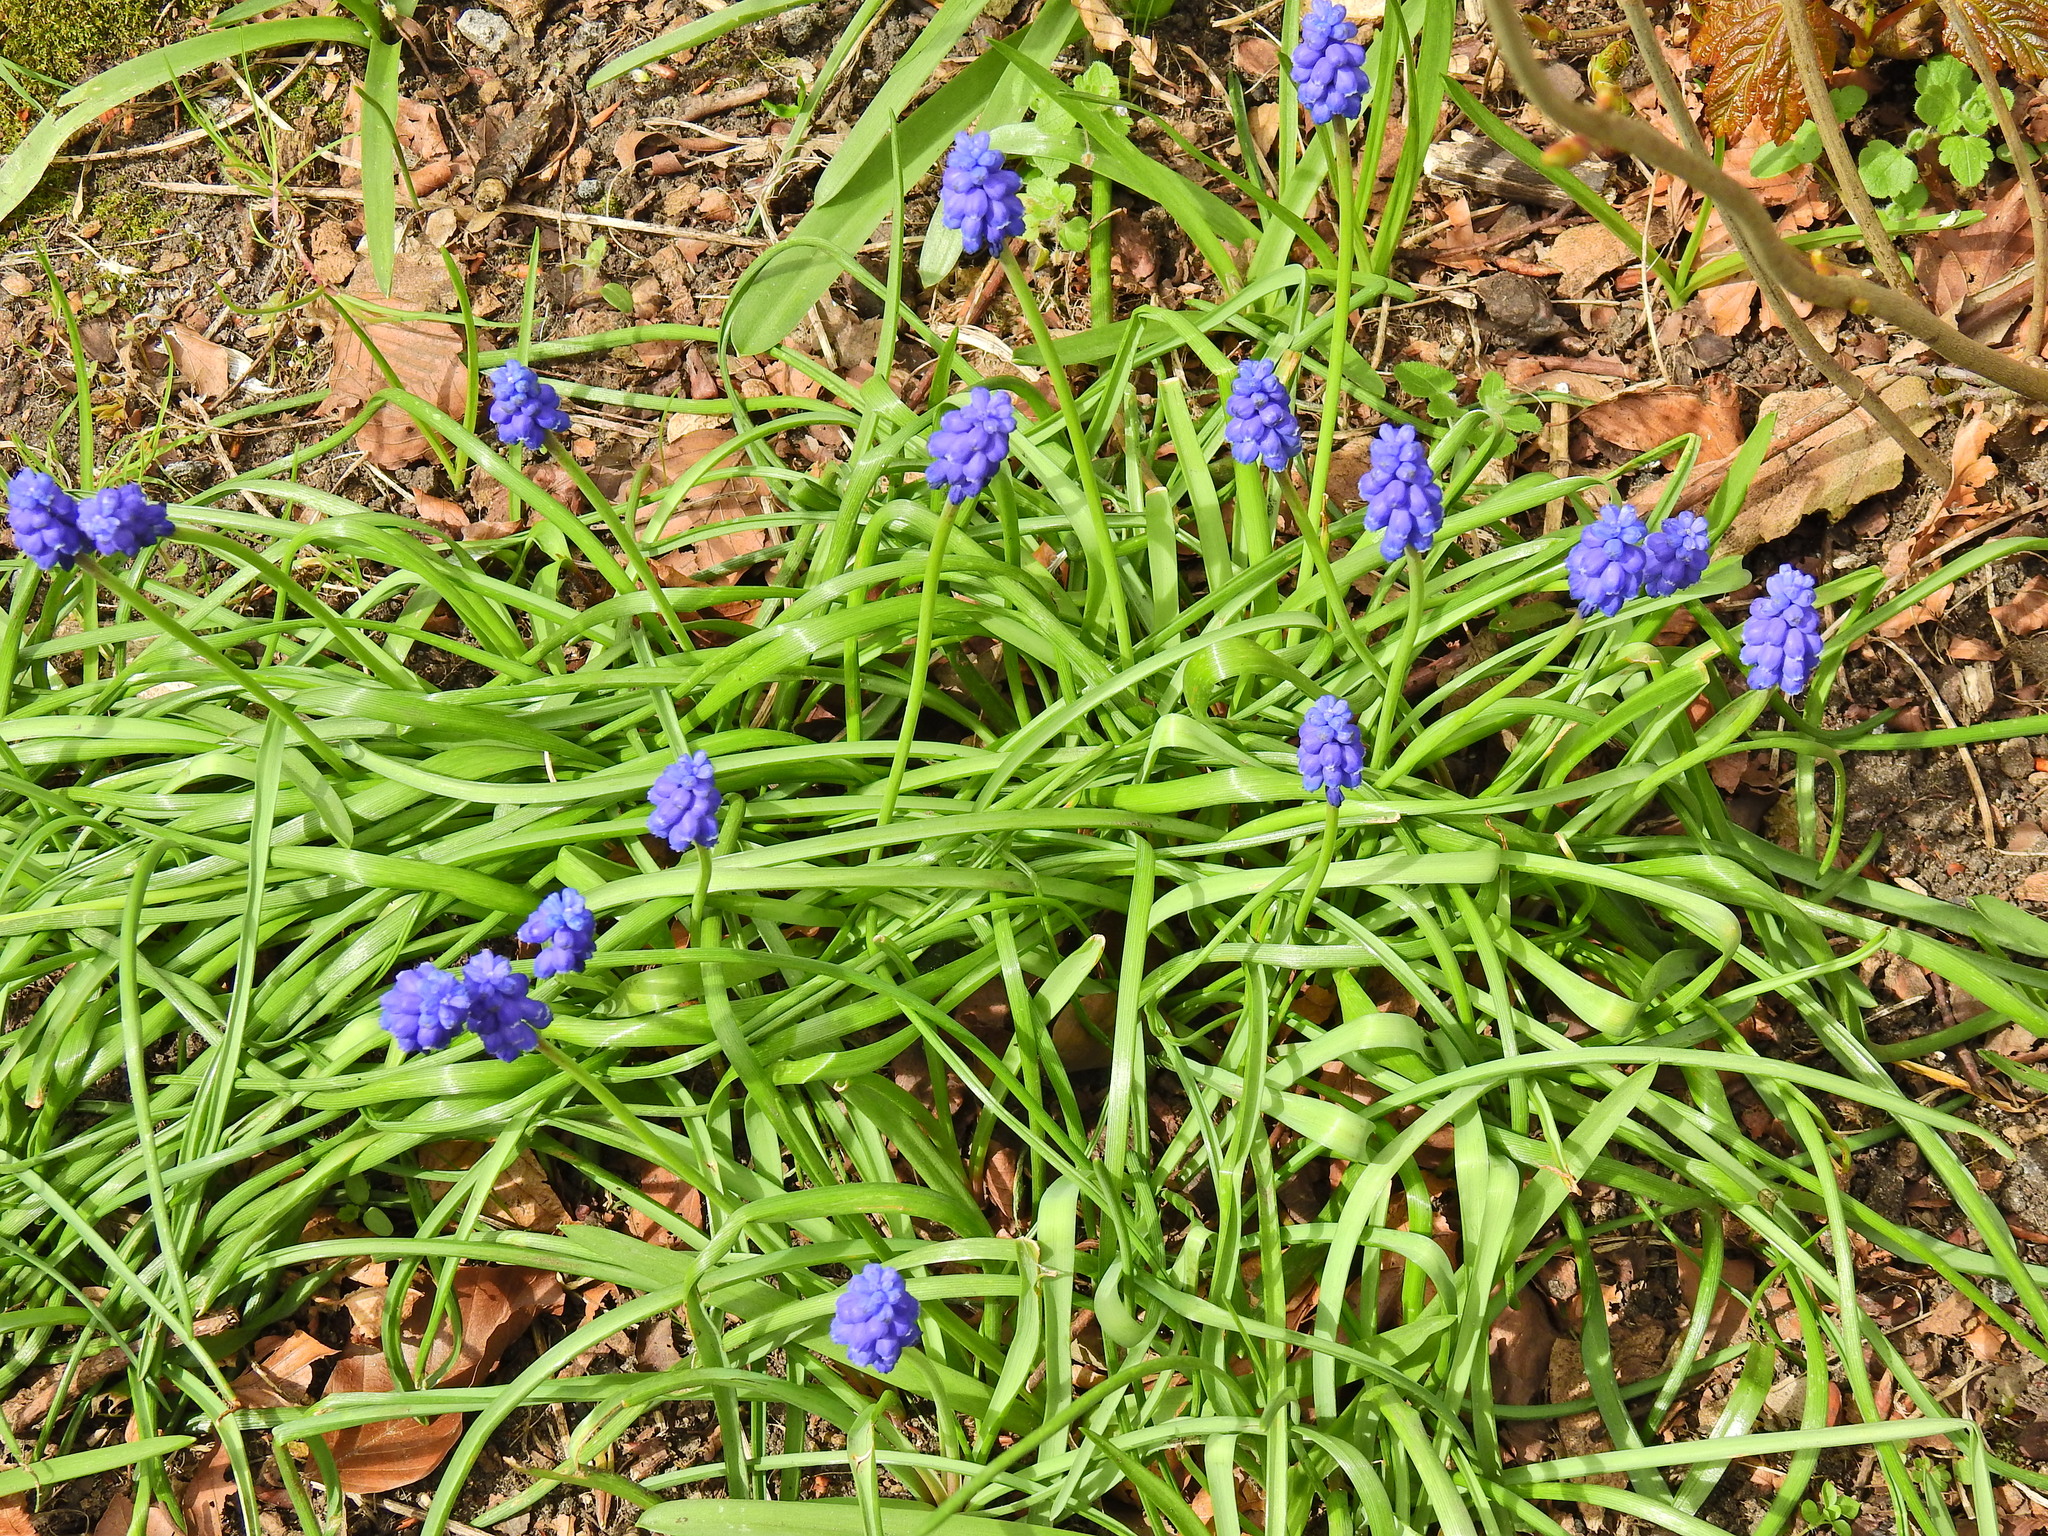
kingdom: Plantae
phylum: Tracheophyta
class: Liliopsida
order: Asparagales
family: Asparagaceae
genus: Muscari
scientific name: Muscari armeniacum
